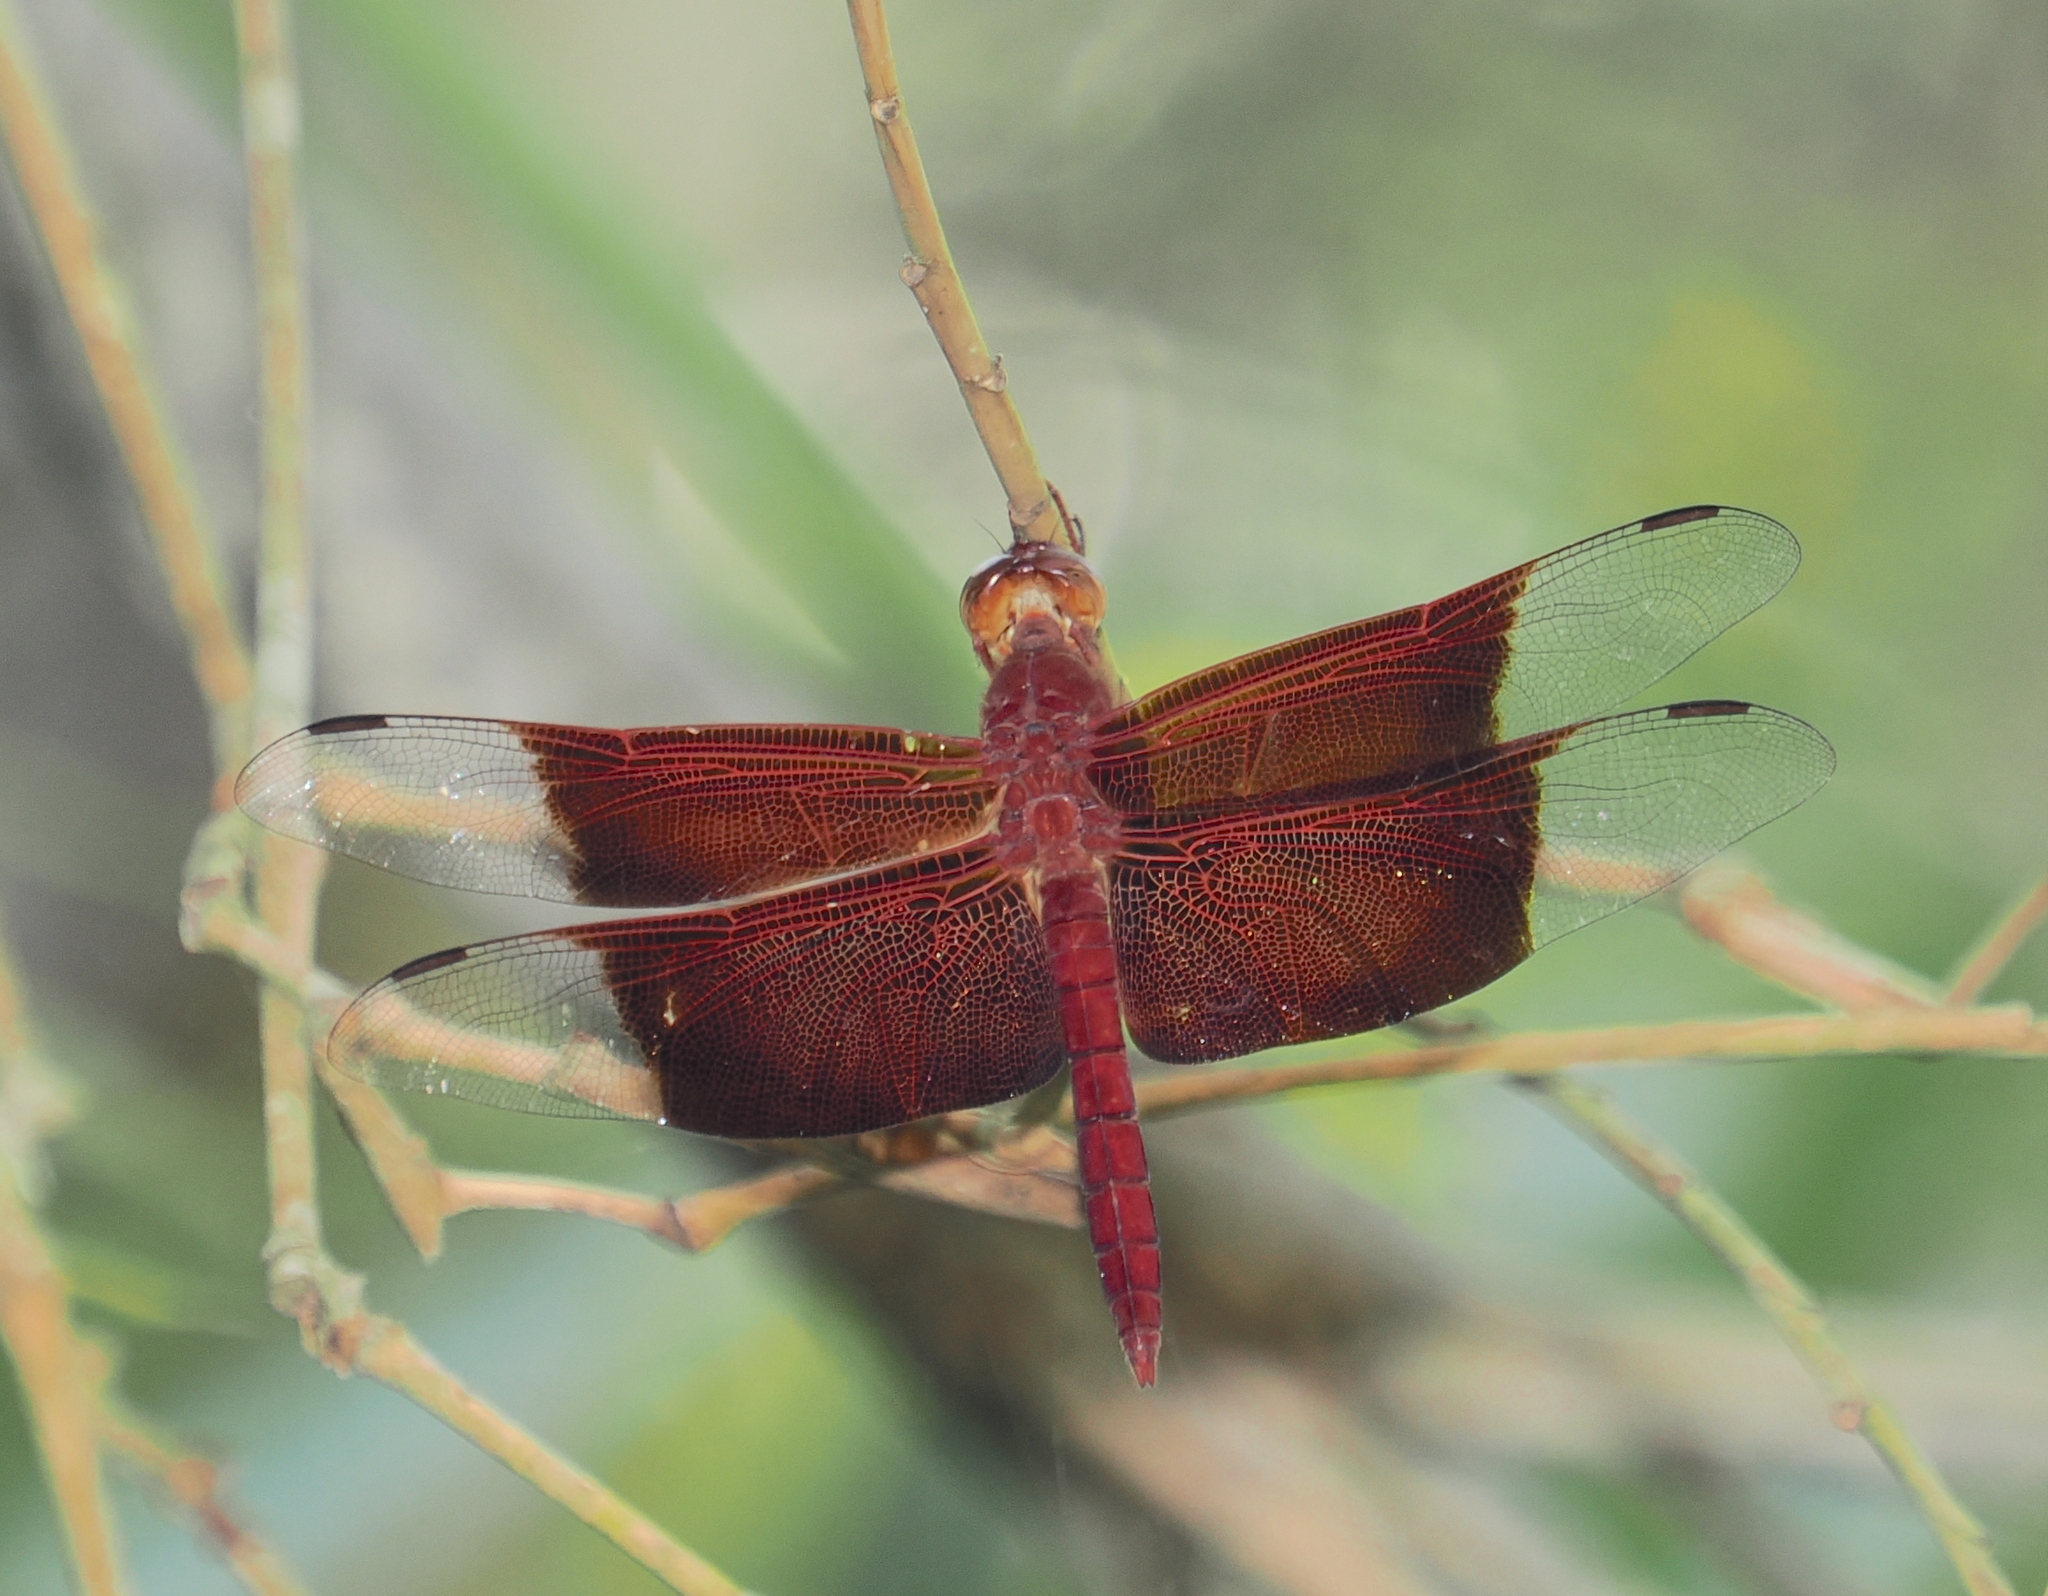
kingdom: Animalia
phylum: Arthropoda
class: Insecta
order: Odonata
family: Libellulidae
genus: Camacinia
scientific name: Camacinia gigantea
